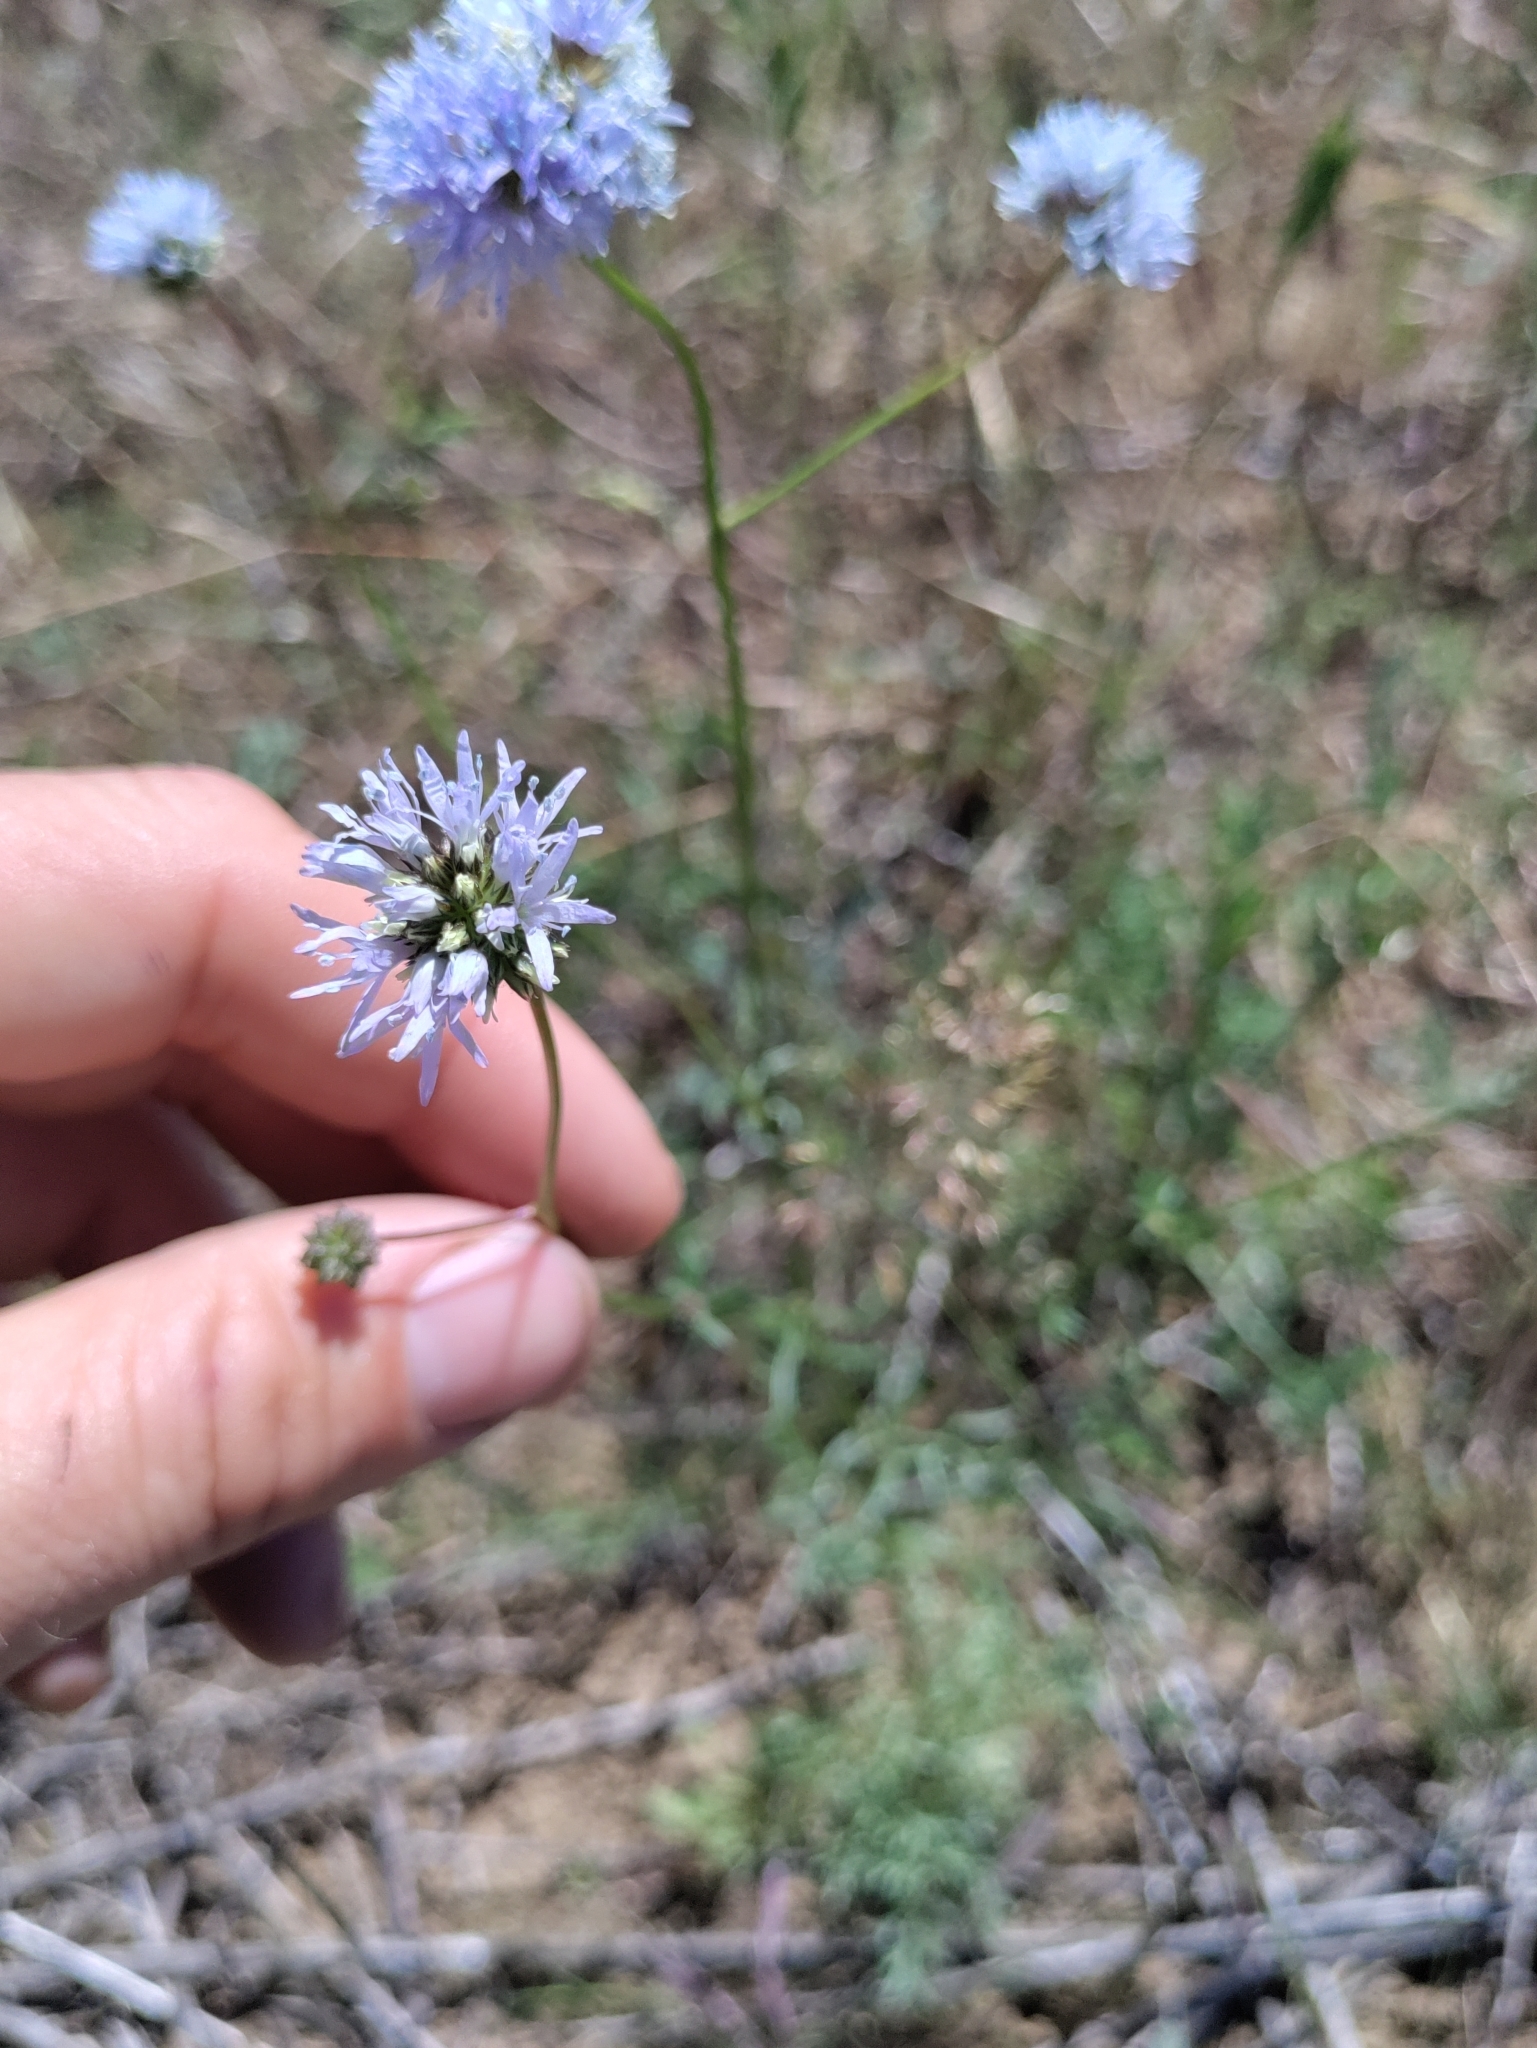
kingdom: Plantae
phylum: Tracheophyta
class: Magnoliopsida
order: Ericales
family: Polemoniaceae
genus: Gilia
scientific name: Gilia capitata
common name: Bluehead gilia
